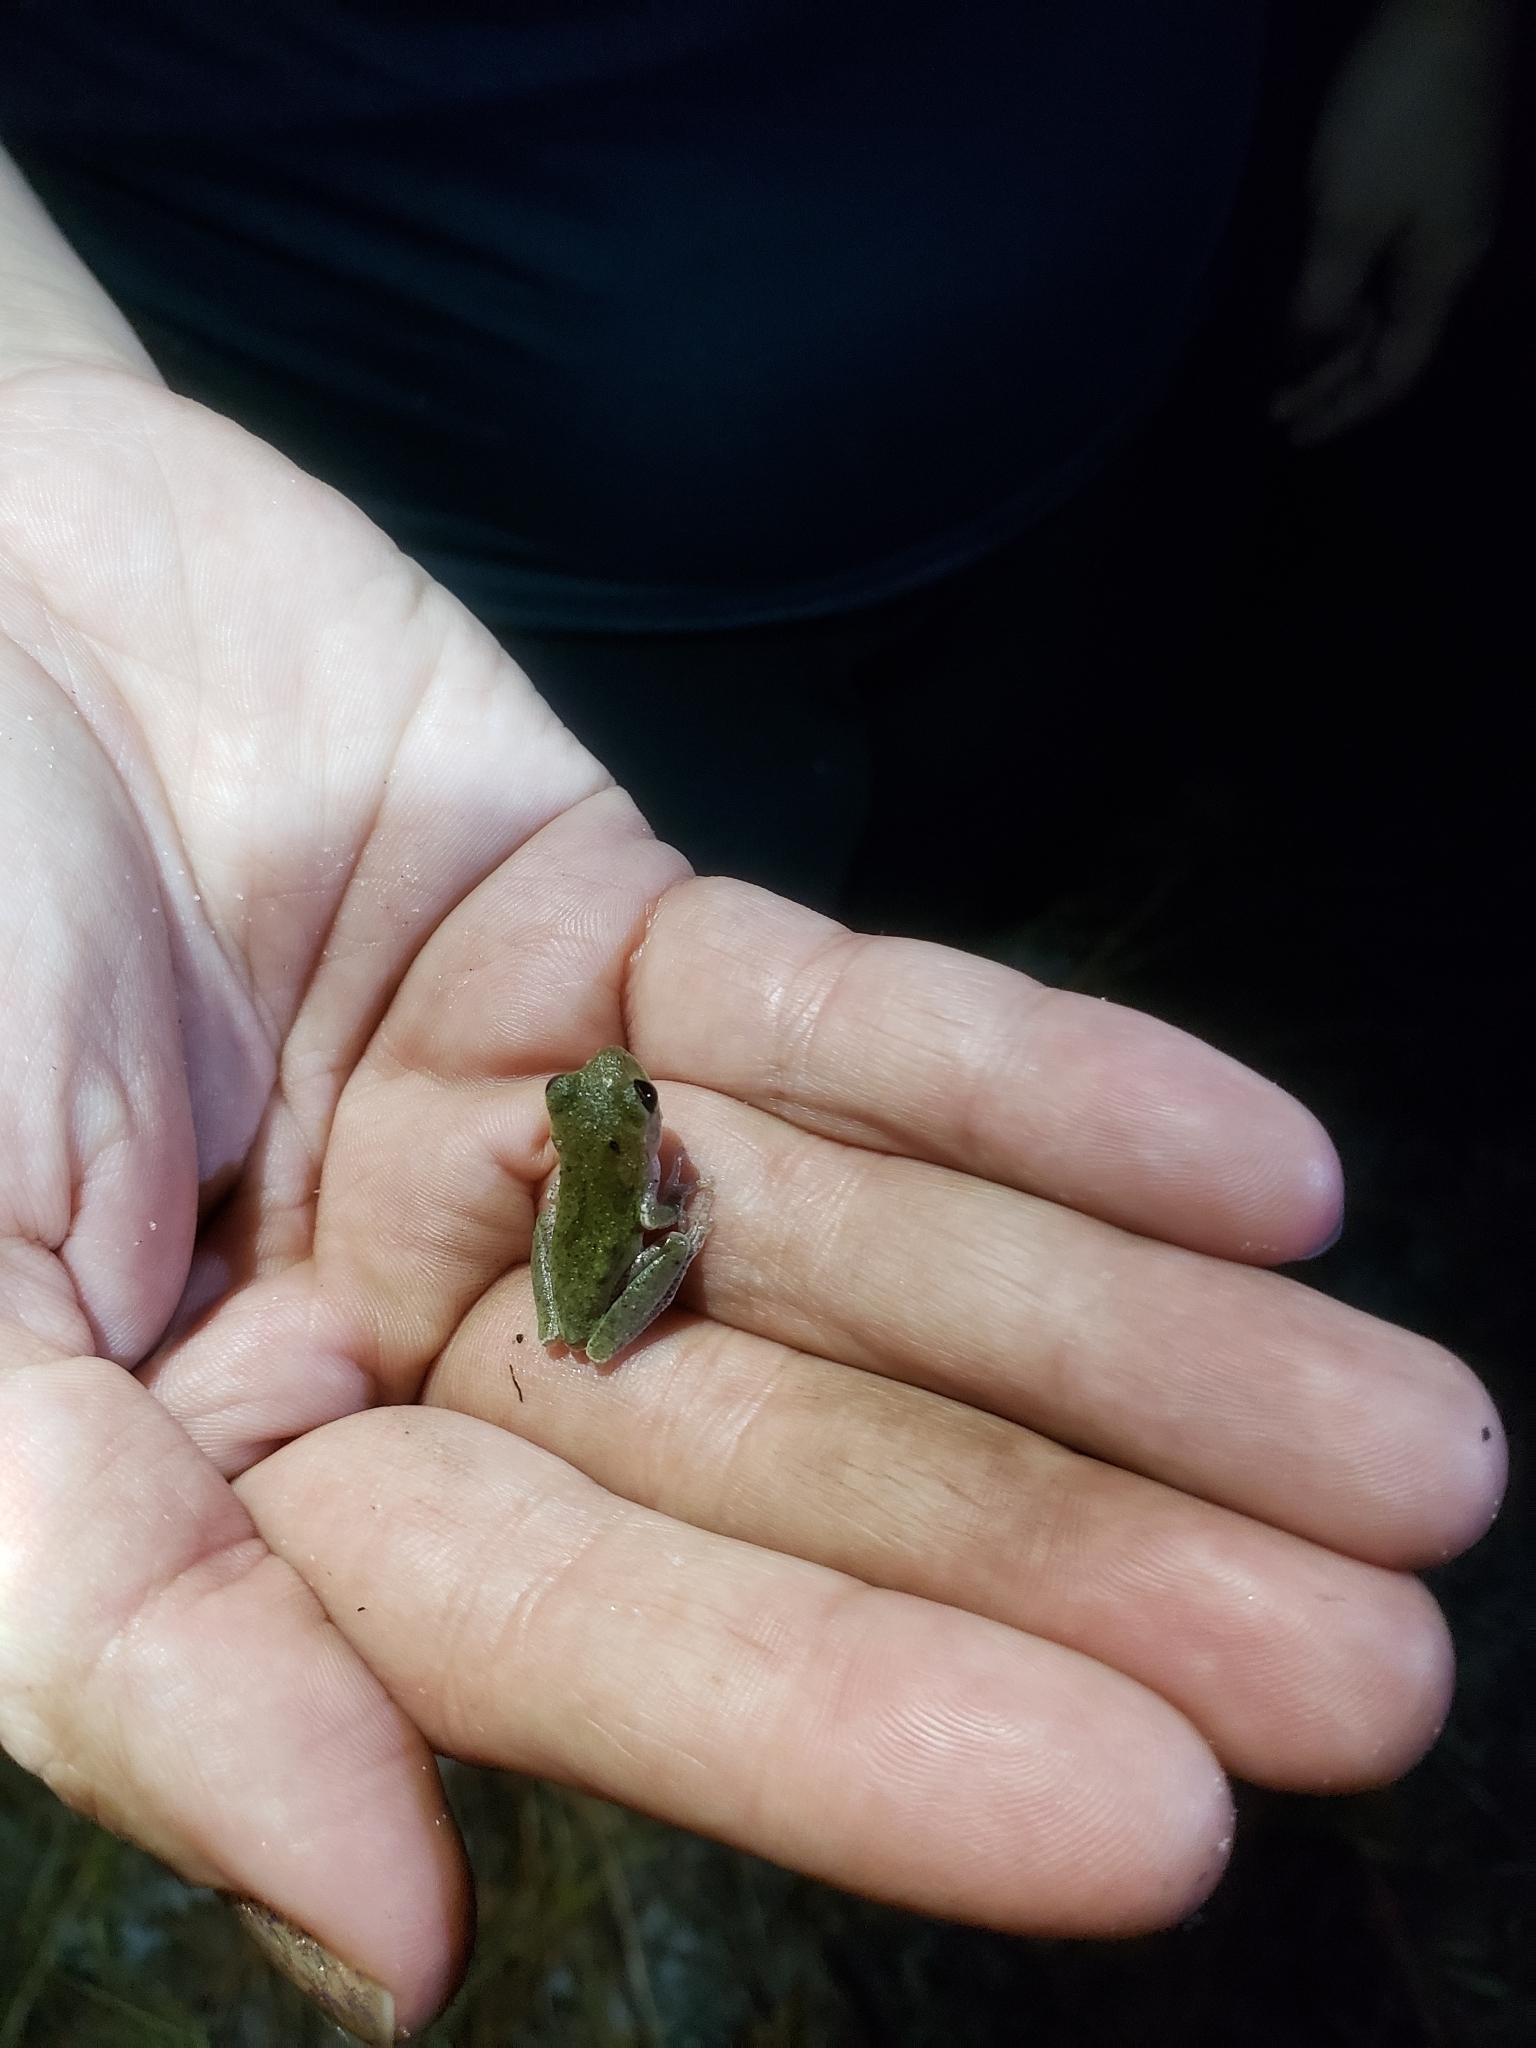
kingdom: Animalia
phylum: Chordata
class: Amphibia
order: Anura
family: Hylidae
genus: Hyla
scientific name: Hyla femoralis
